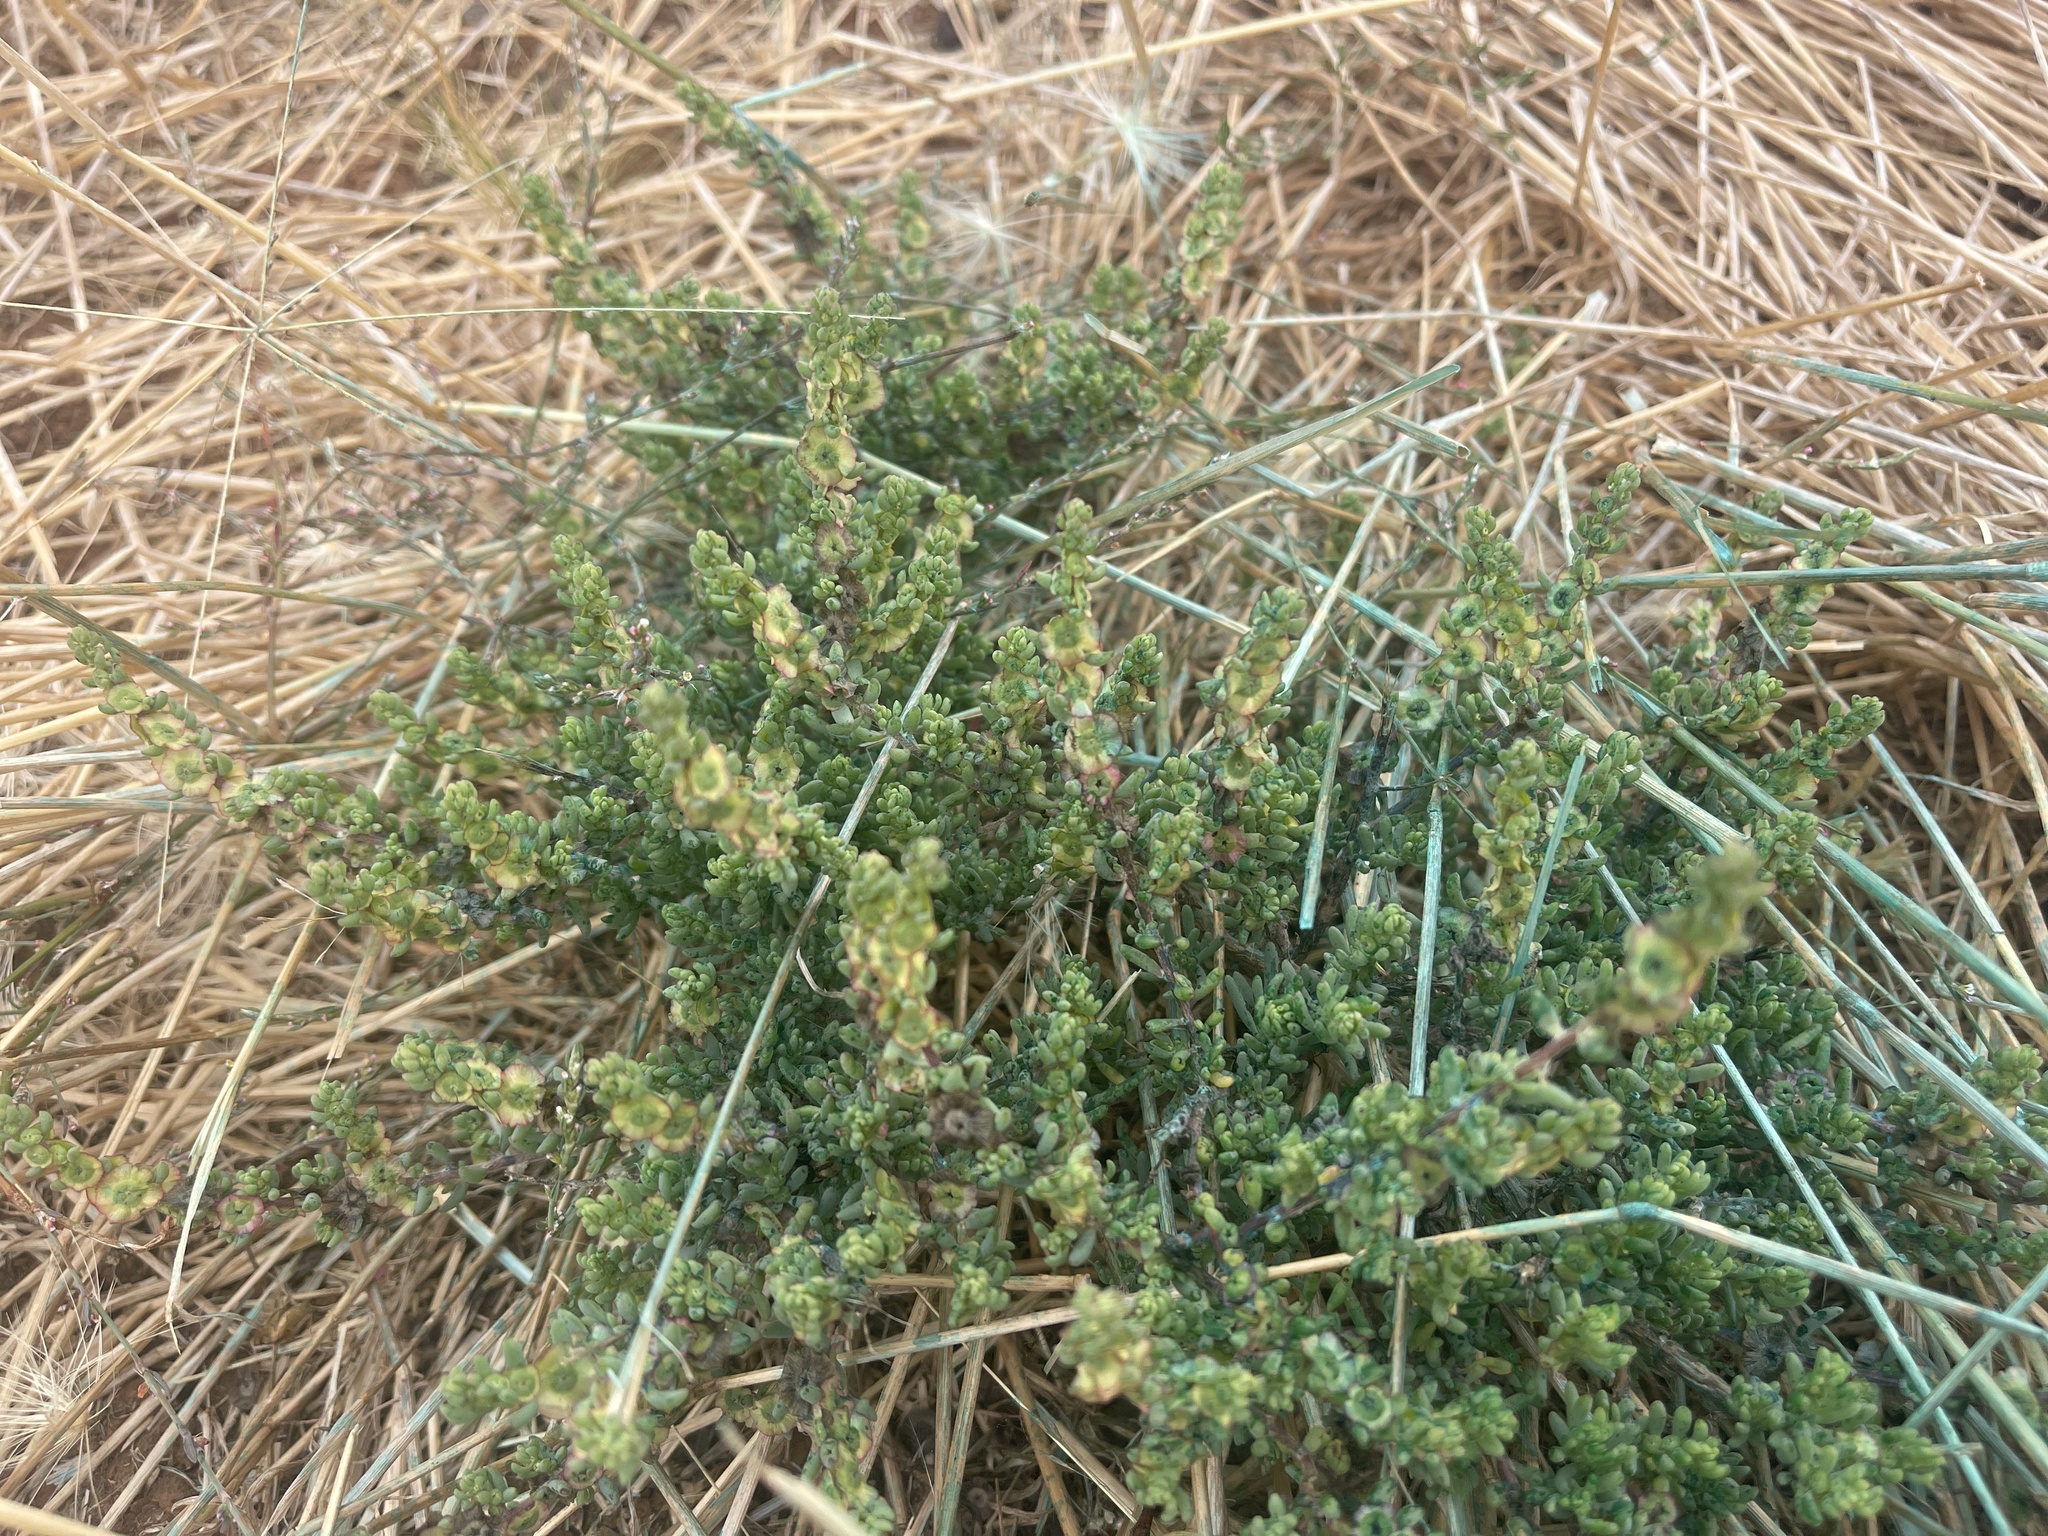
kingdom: Plantae
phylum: Tracheophyta
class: Magnoliopsida
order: Caryophyllales
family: Amaranthaceae
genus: Maireana
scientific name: Maireana decalvans
